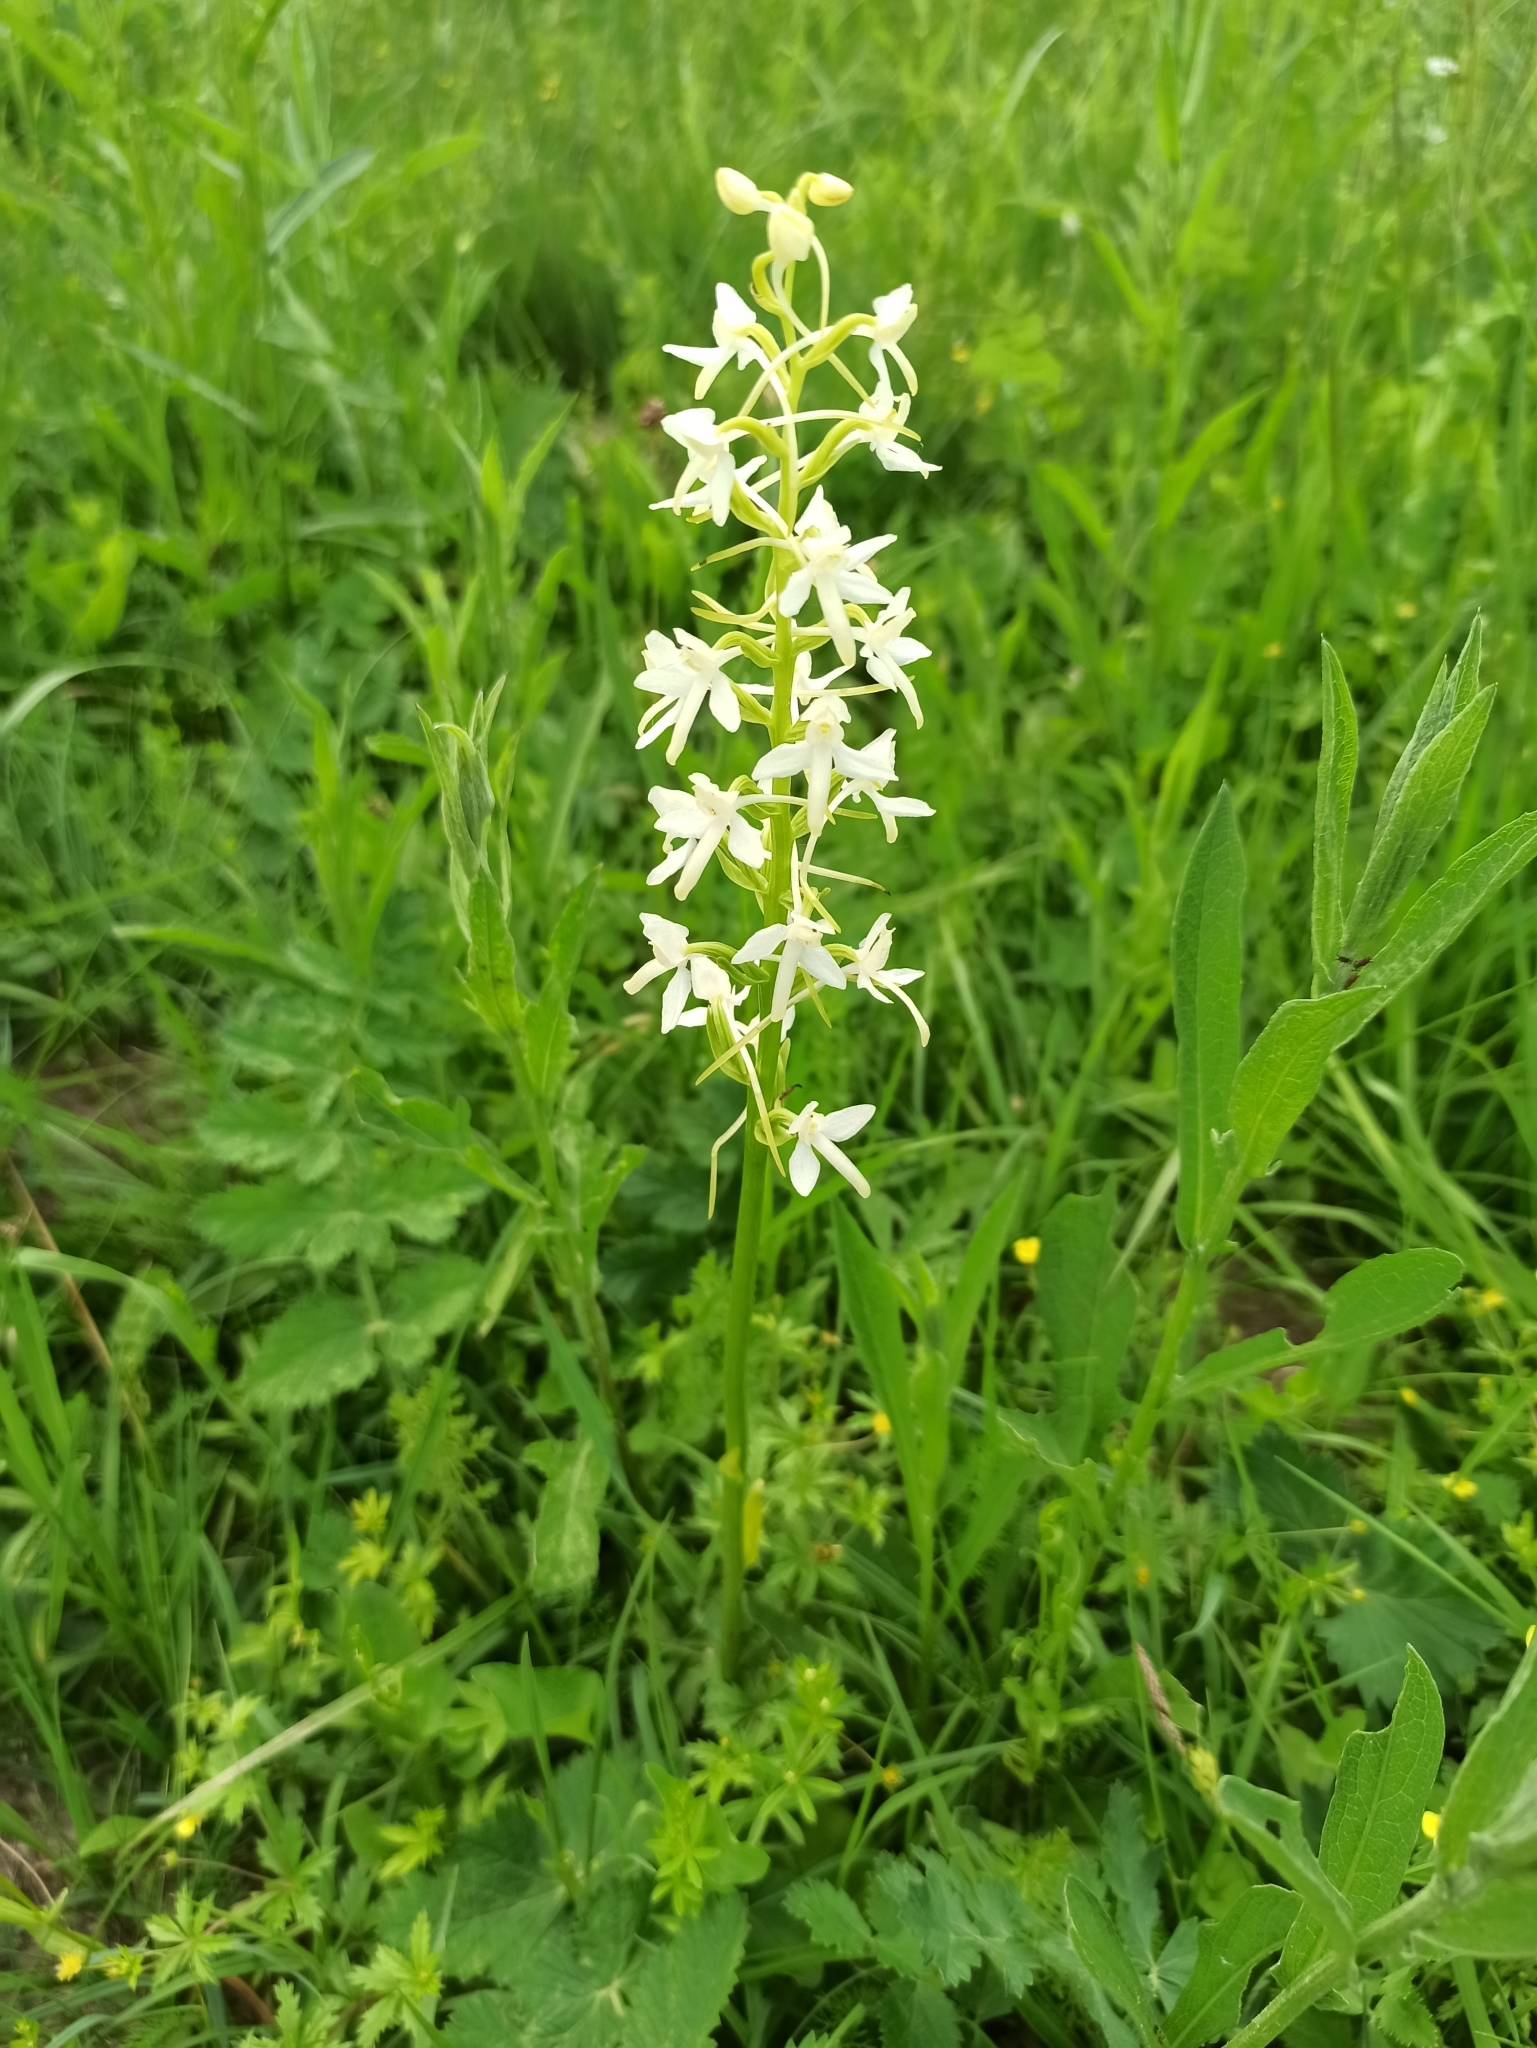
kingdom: Plantae
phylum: Tracheophyta
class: Liliopsida
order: Asparagales
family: Orchidaceae
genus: Platanthera
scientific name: Platanthera bifolia
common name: Lesser butterfly-orchid
